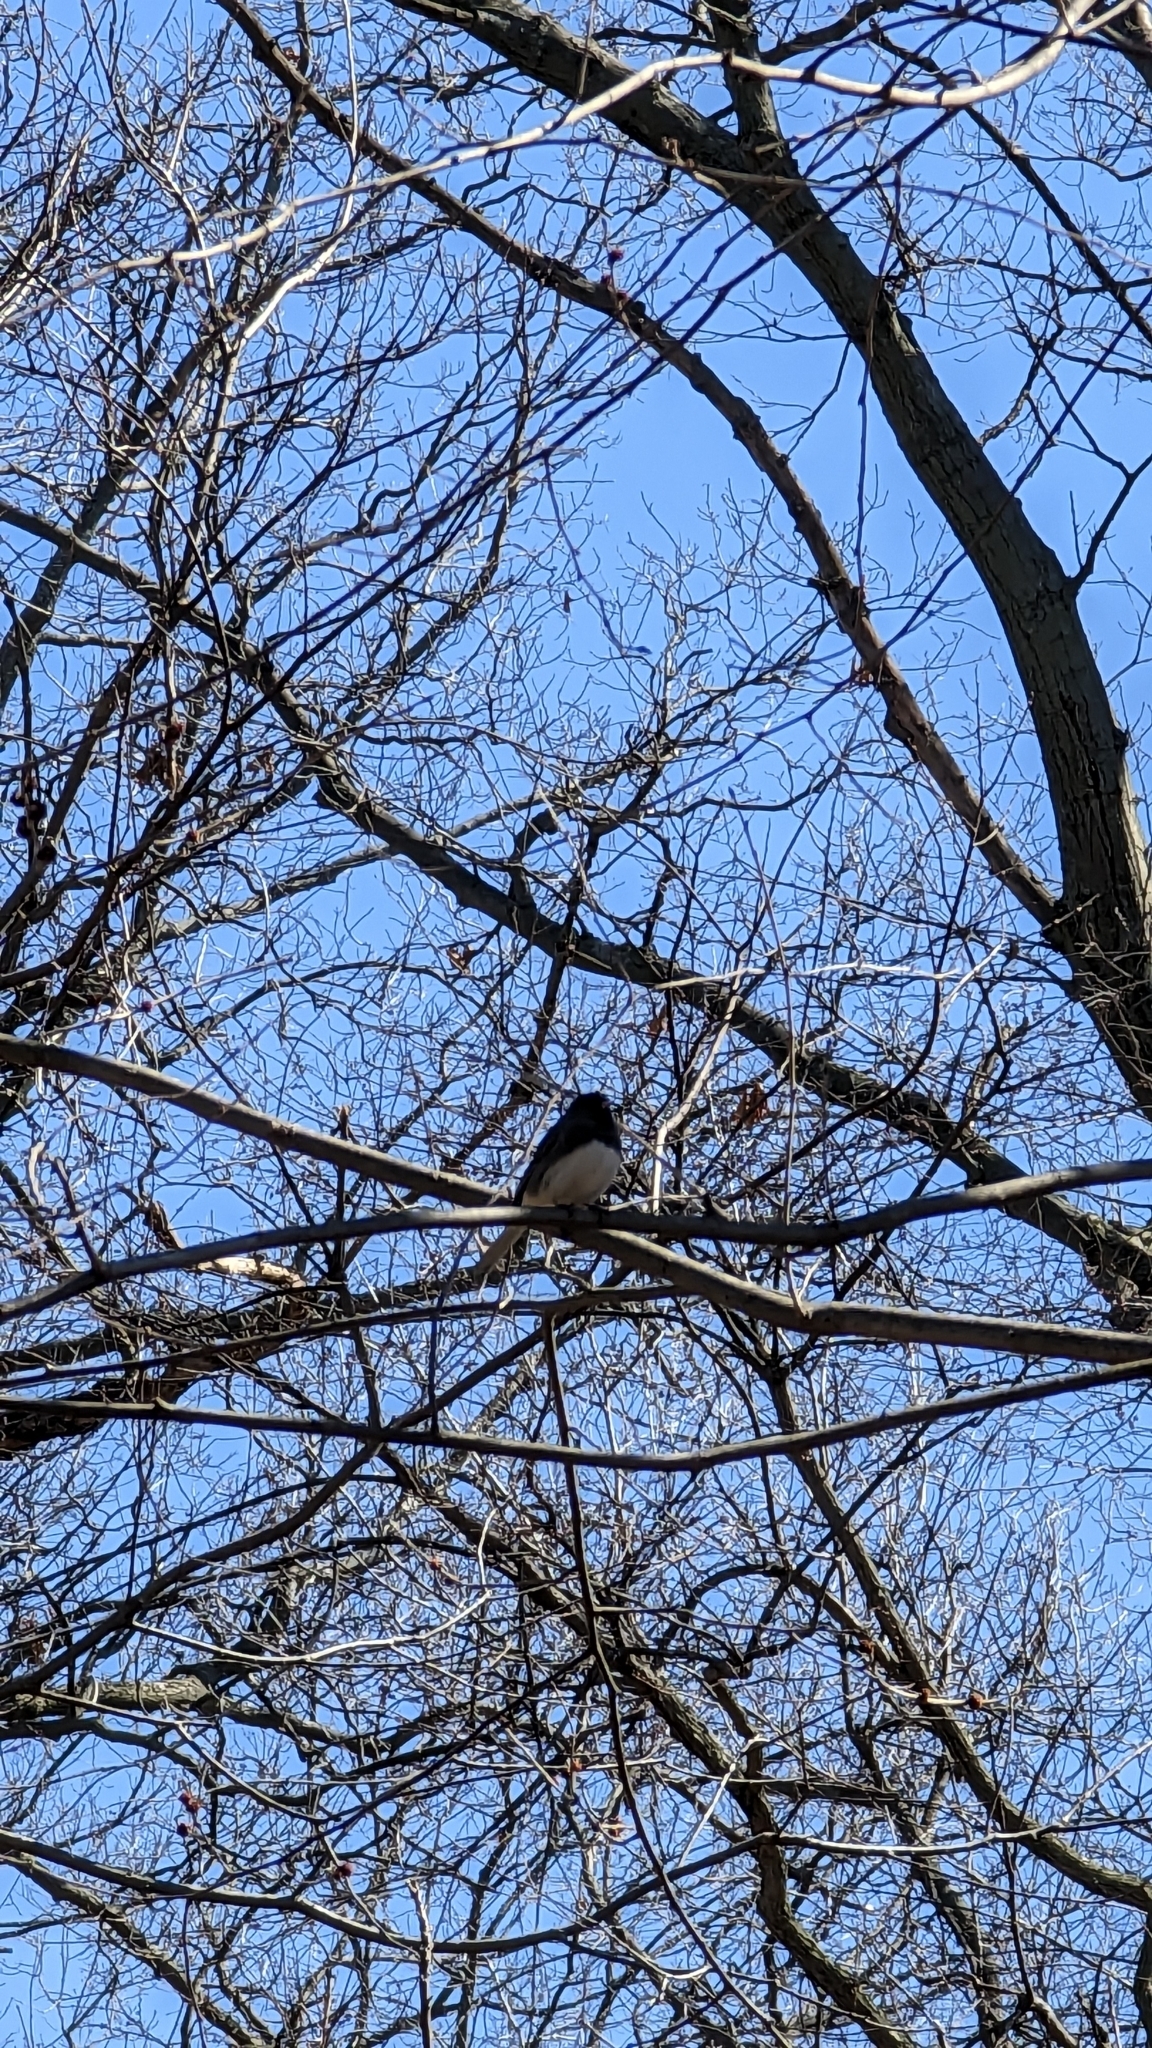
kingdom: Animalia
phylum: Chordata
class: Aves
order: Passeriformes
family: Passerellidae
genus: Junco
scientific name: Junco hyemalis
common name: Dark-eyed junco
